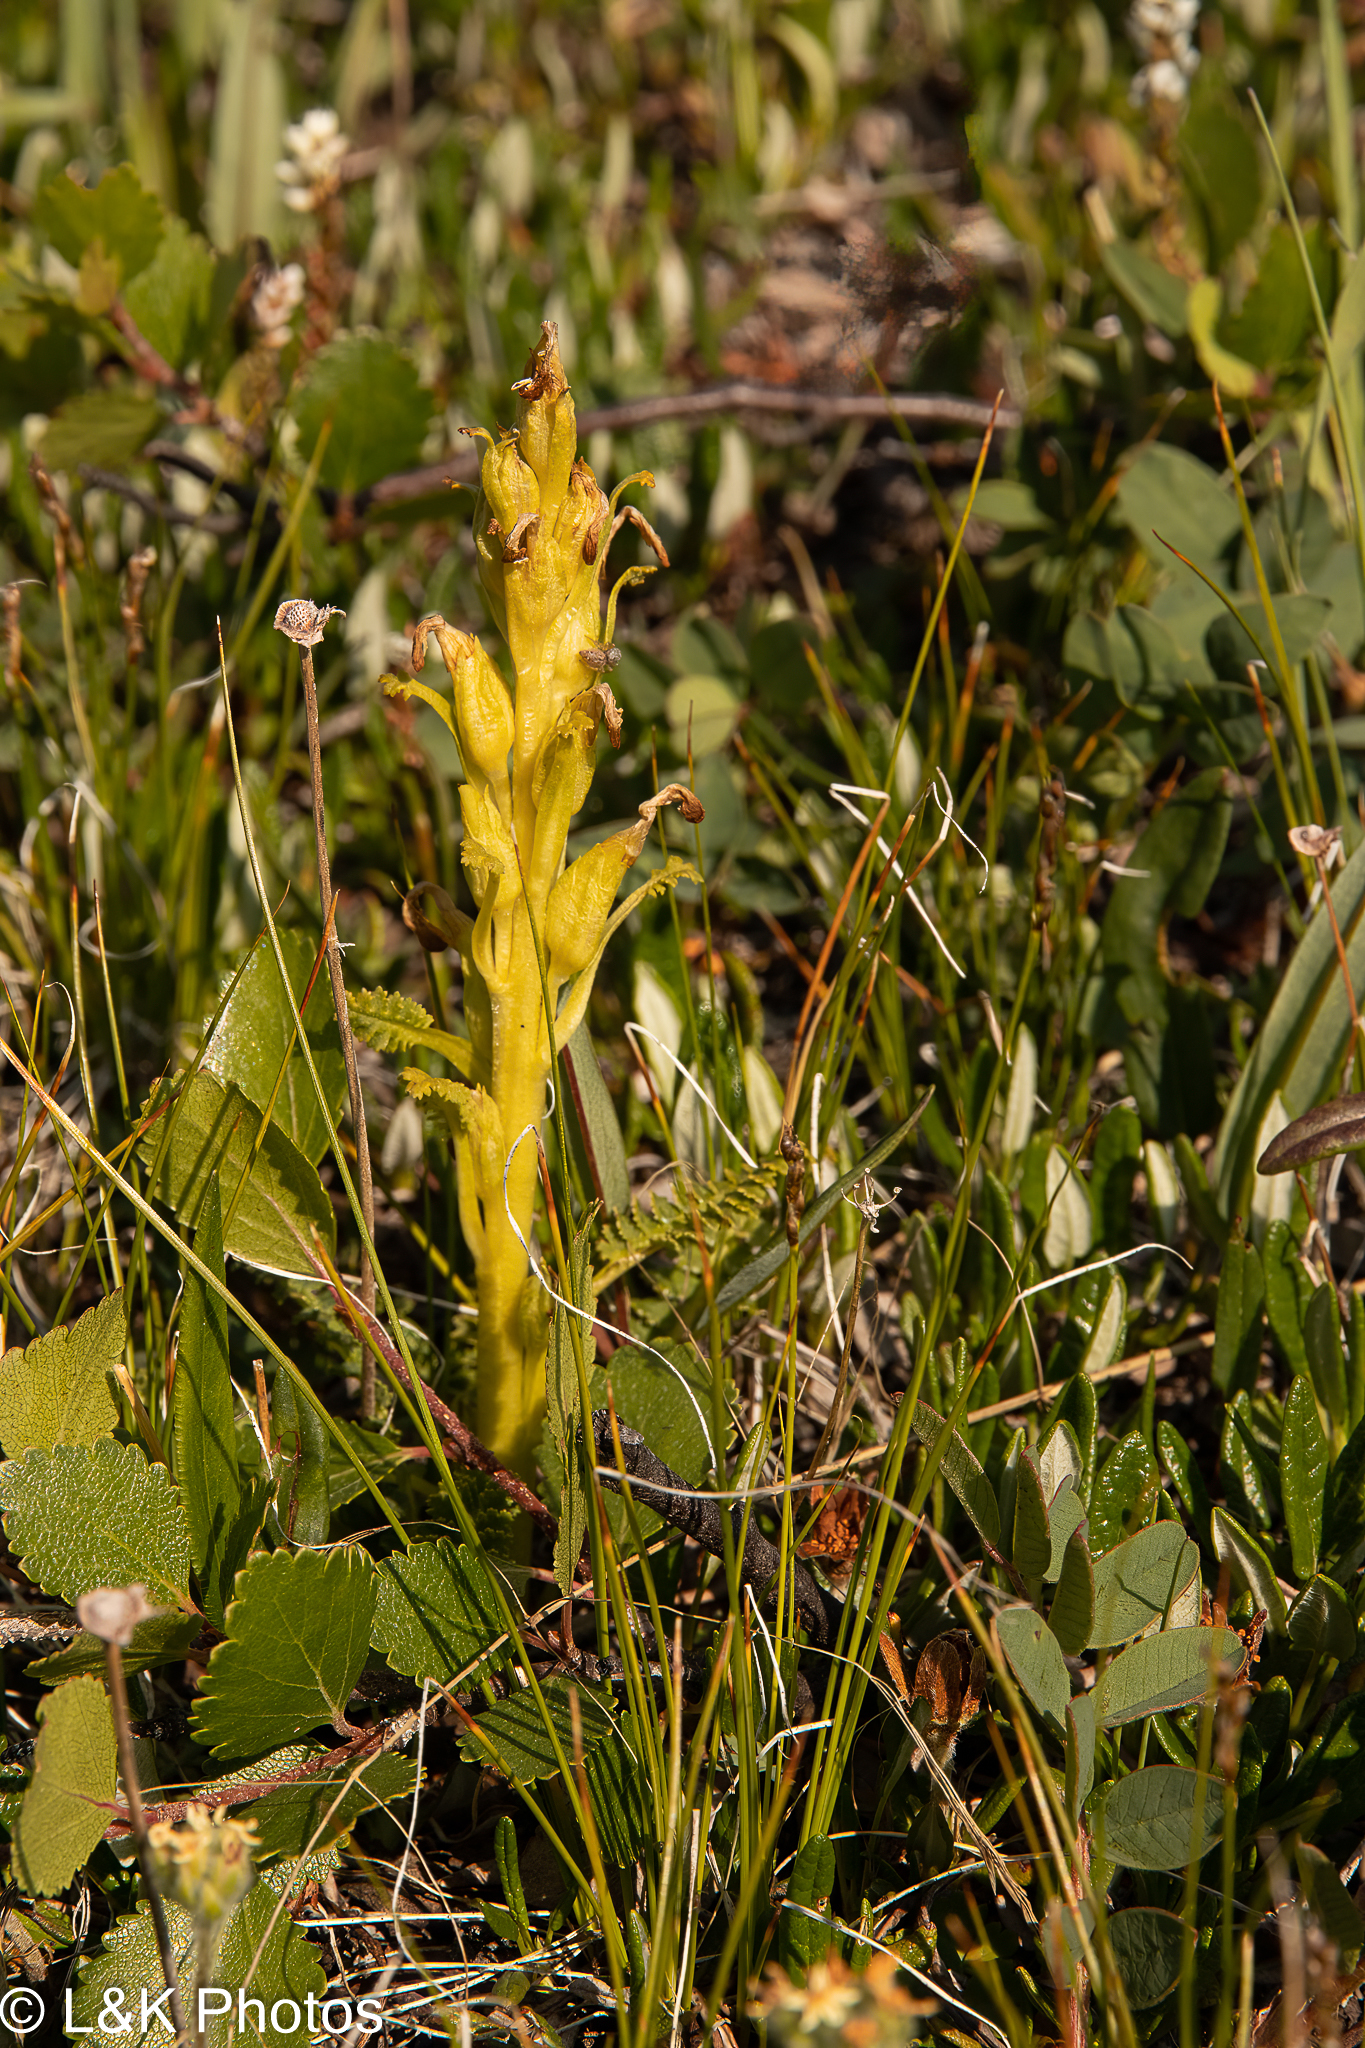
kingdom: Plantae
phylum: Tracheophyta
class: Magnoliopsida
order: Lamiales
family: Orobanchaceae
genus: Pedicularis
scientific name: Pedicularis flammea
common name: Flame-coloured lousewort
